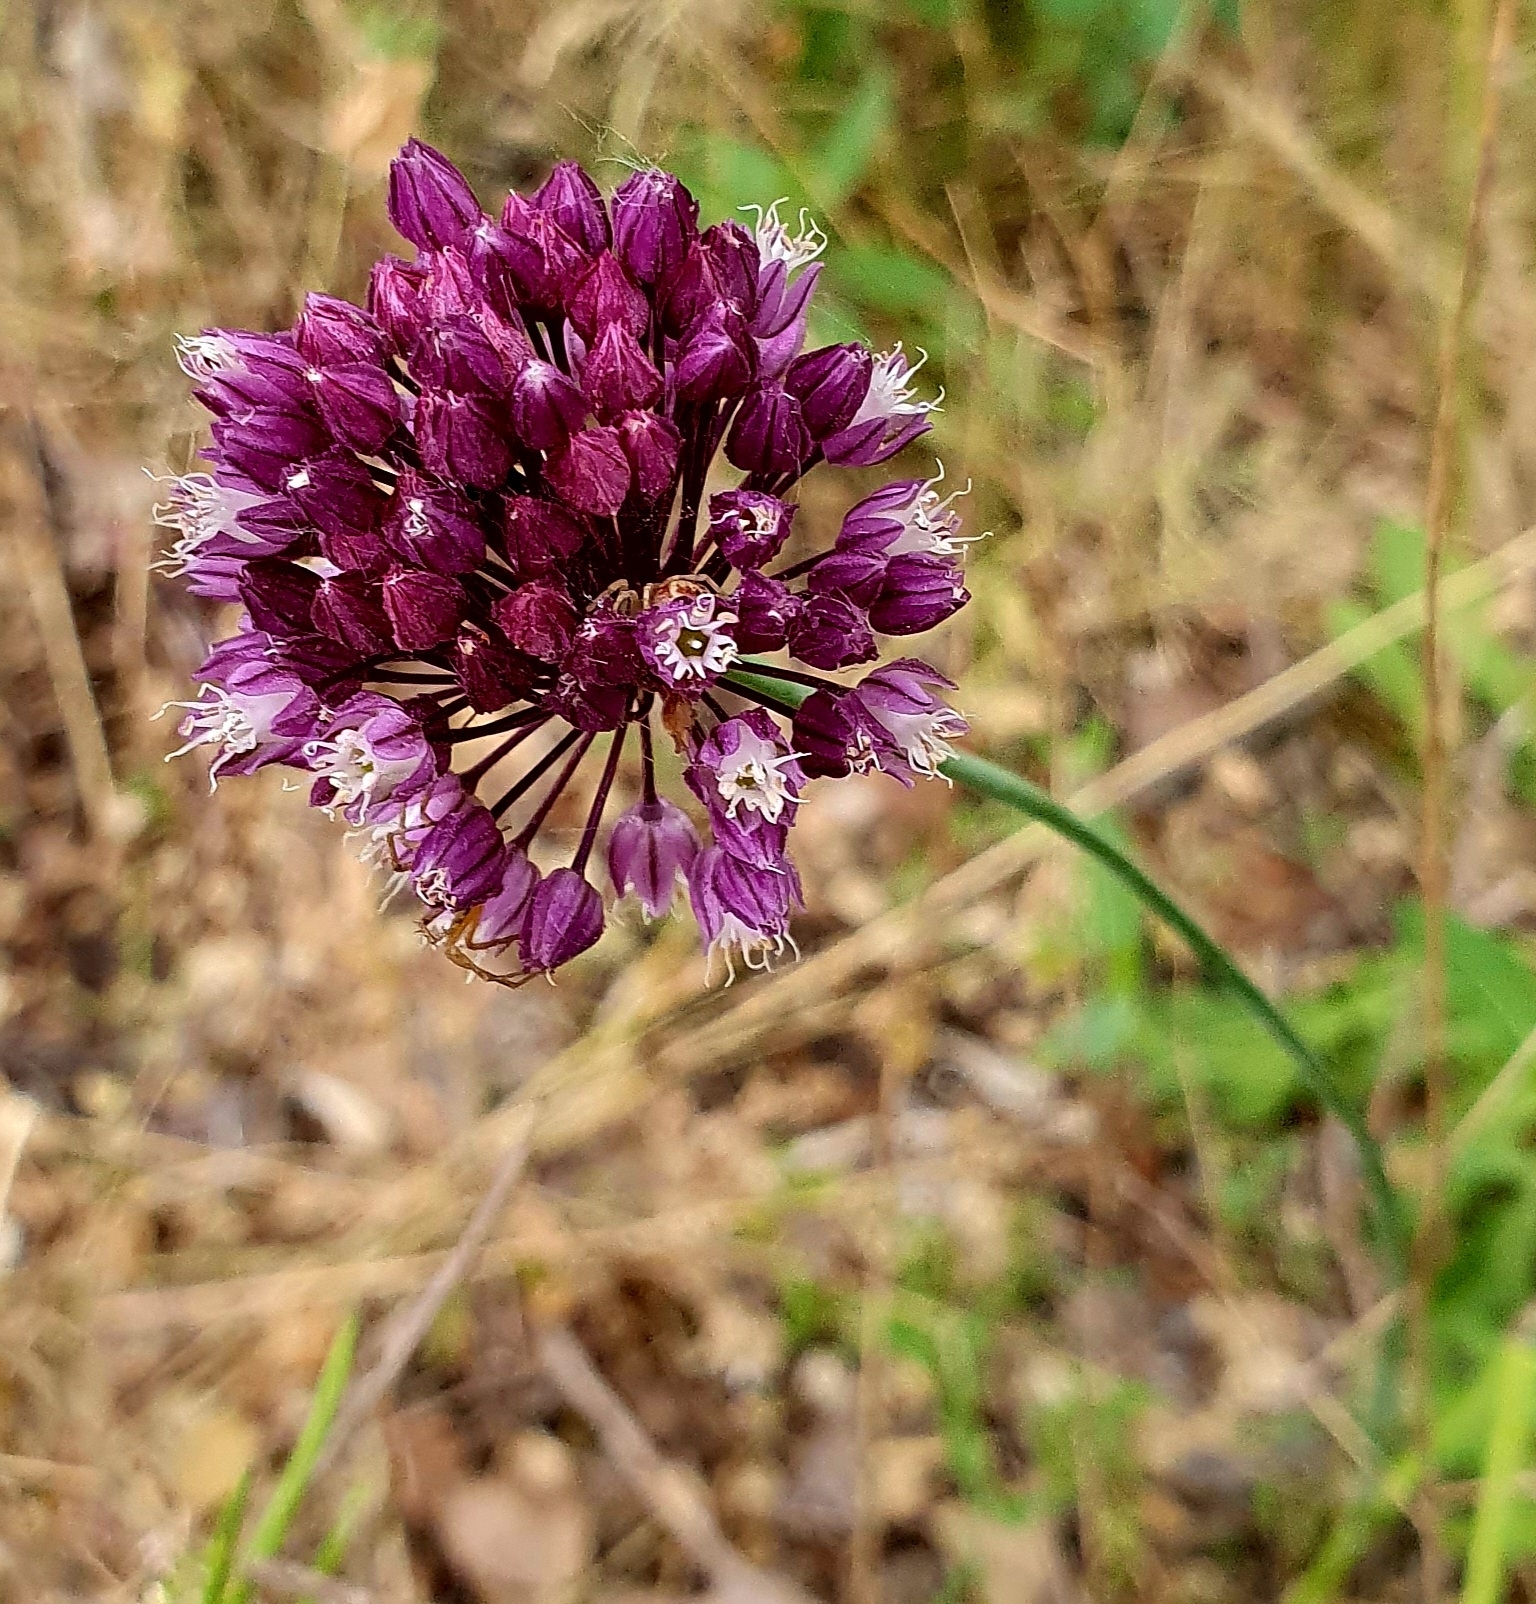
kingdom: Plantae
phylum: Tracheophyta
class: Liliopsida
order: Asparagales
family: Amaryllidaceae
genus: Allium
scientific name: Allium rotundum
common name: Sand leek
